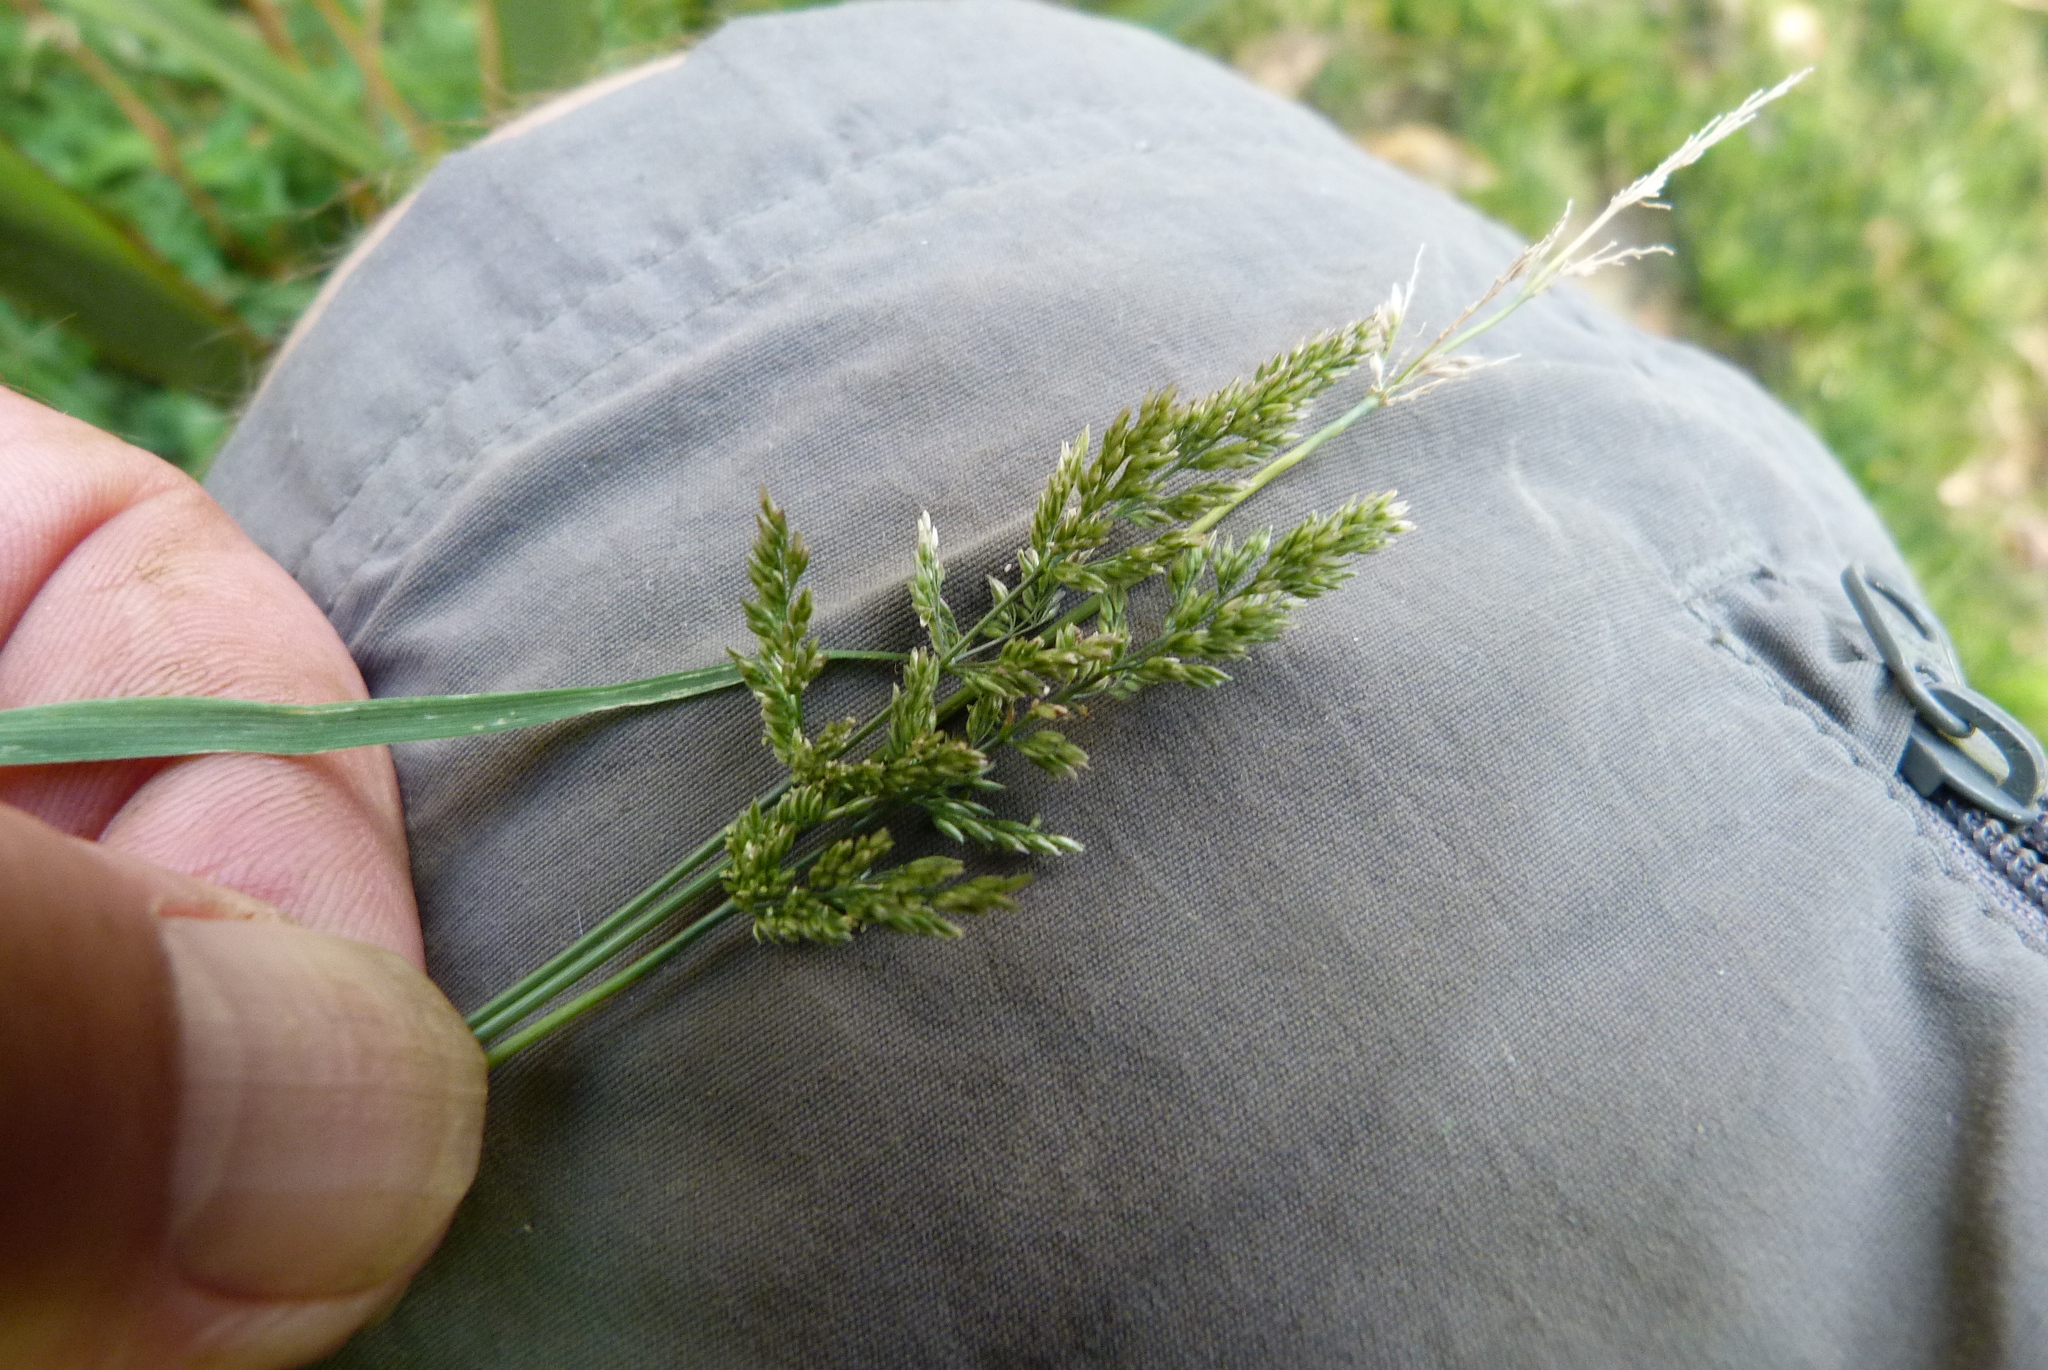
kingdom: Plantae
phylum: Tracheophyta
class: Liliopsida
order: Poales
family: Poaceae
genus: Polypogon
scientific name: Polypogon viridis
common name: Water bent
